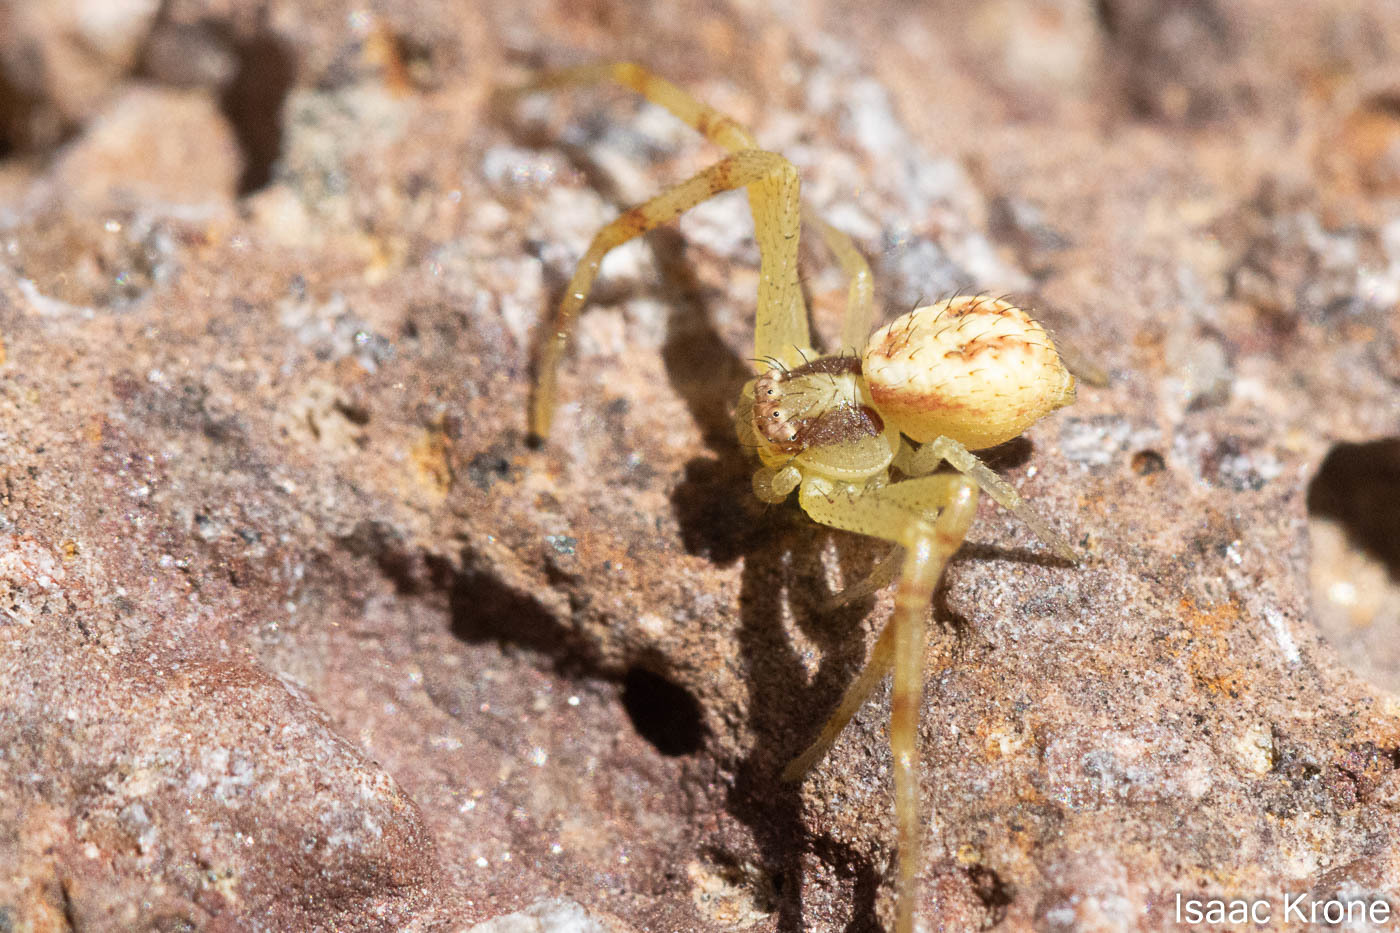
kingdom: Animalia
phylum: Arthropoda
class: Arachnida
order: Araneae
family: Thomisidae
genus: Mecaphesa
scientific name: Mecaphesa
